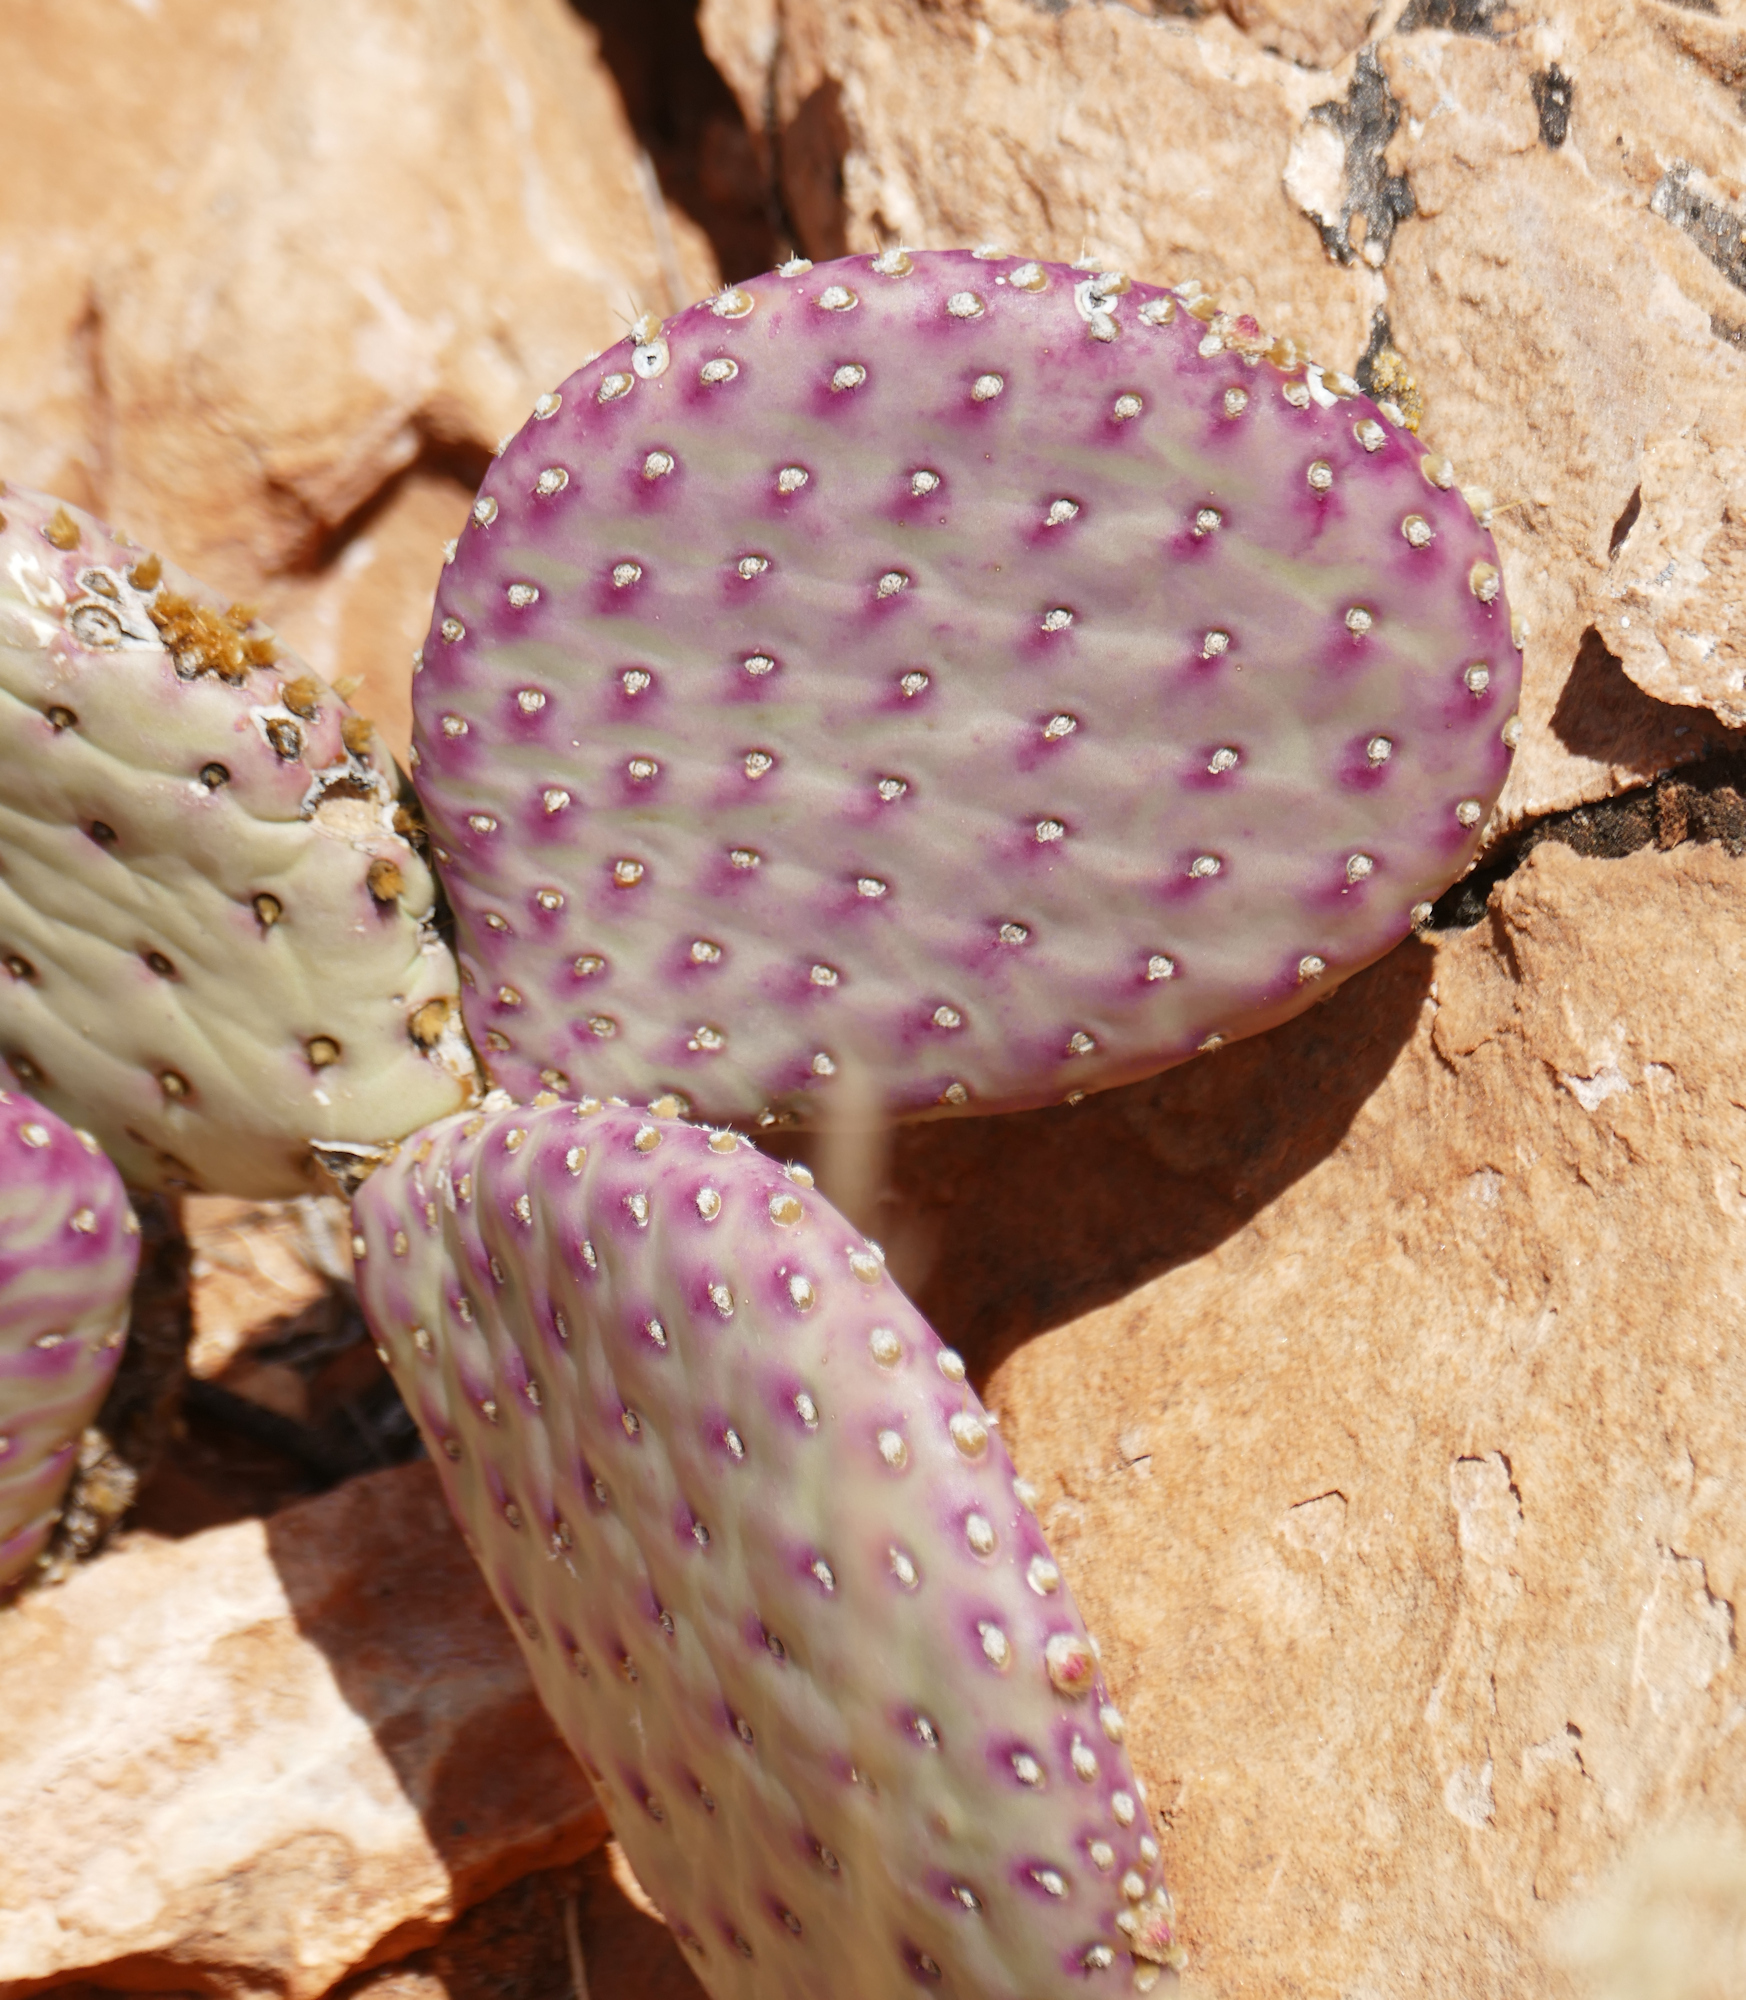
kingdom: Plantae
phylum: Tracheophyta
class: Magnoliopsida
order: Caryophyllales
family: Cactaceae
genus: Opuntia
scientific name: Opuntia aurea
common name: Golden prickly-pear
